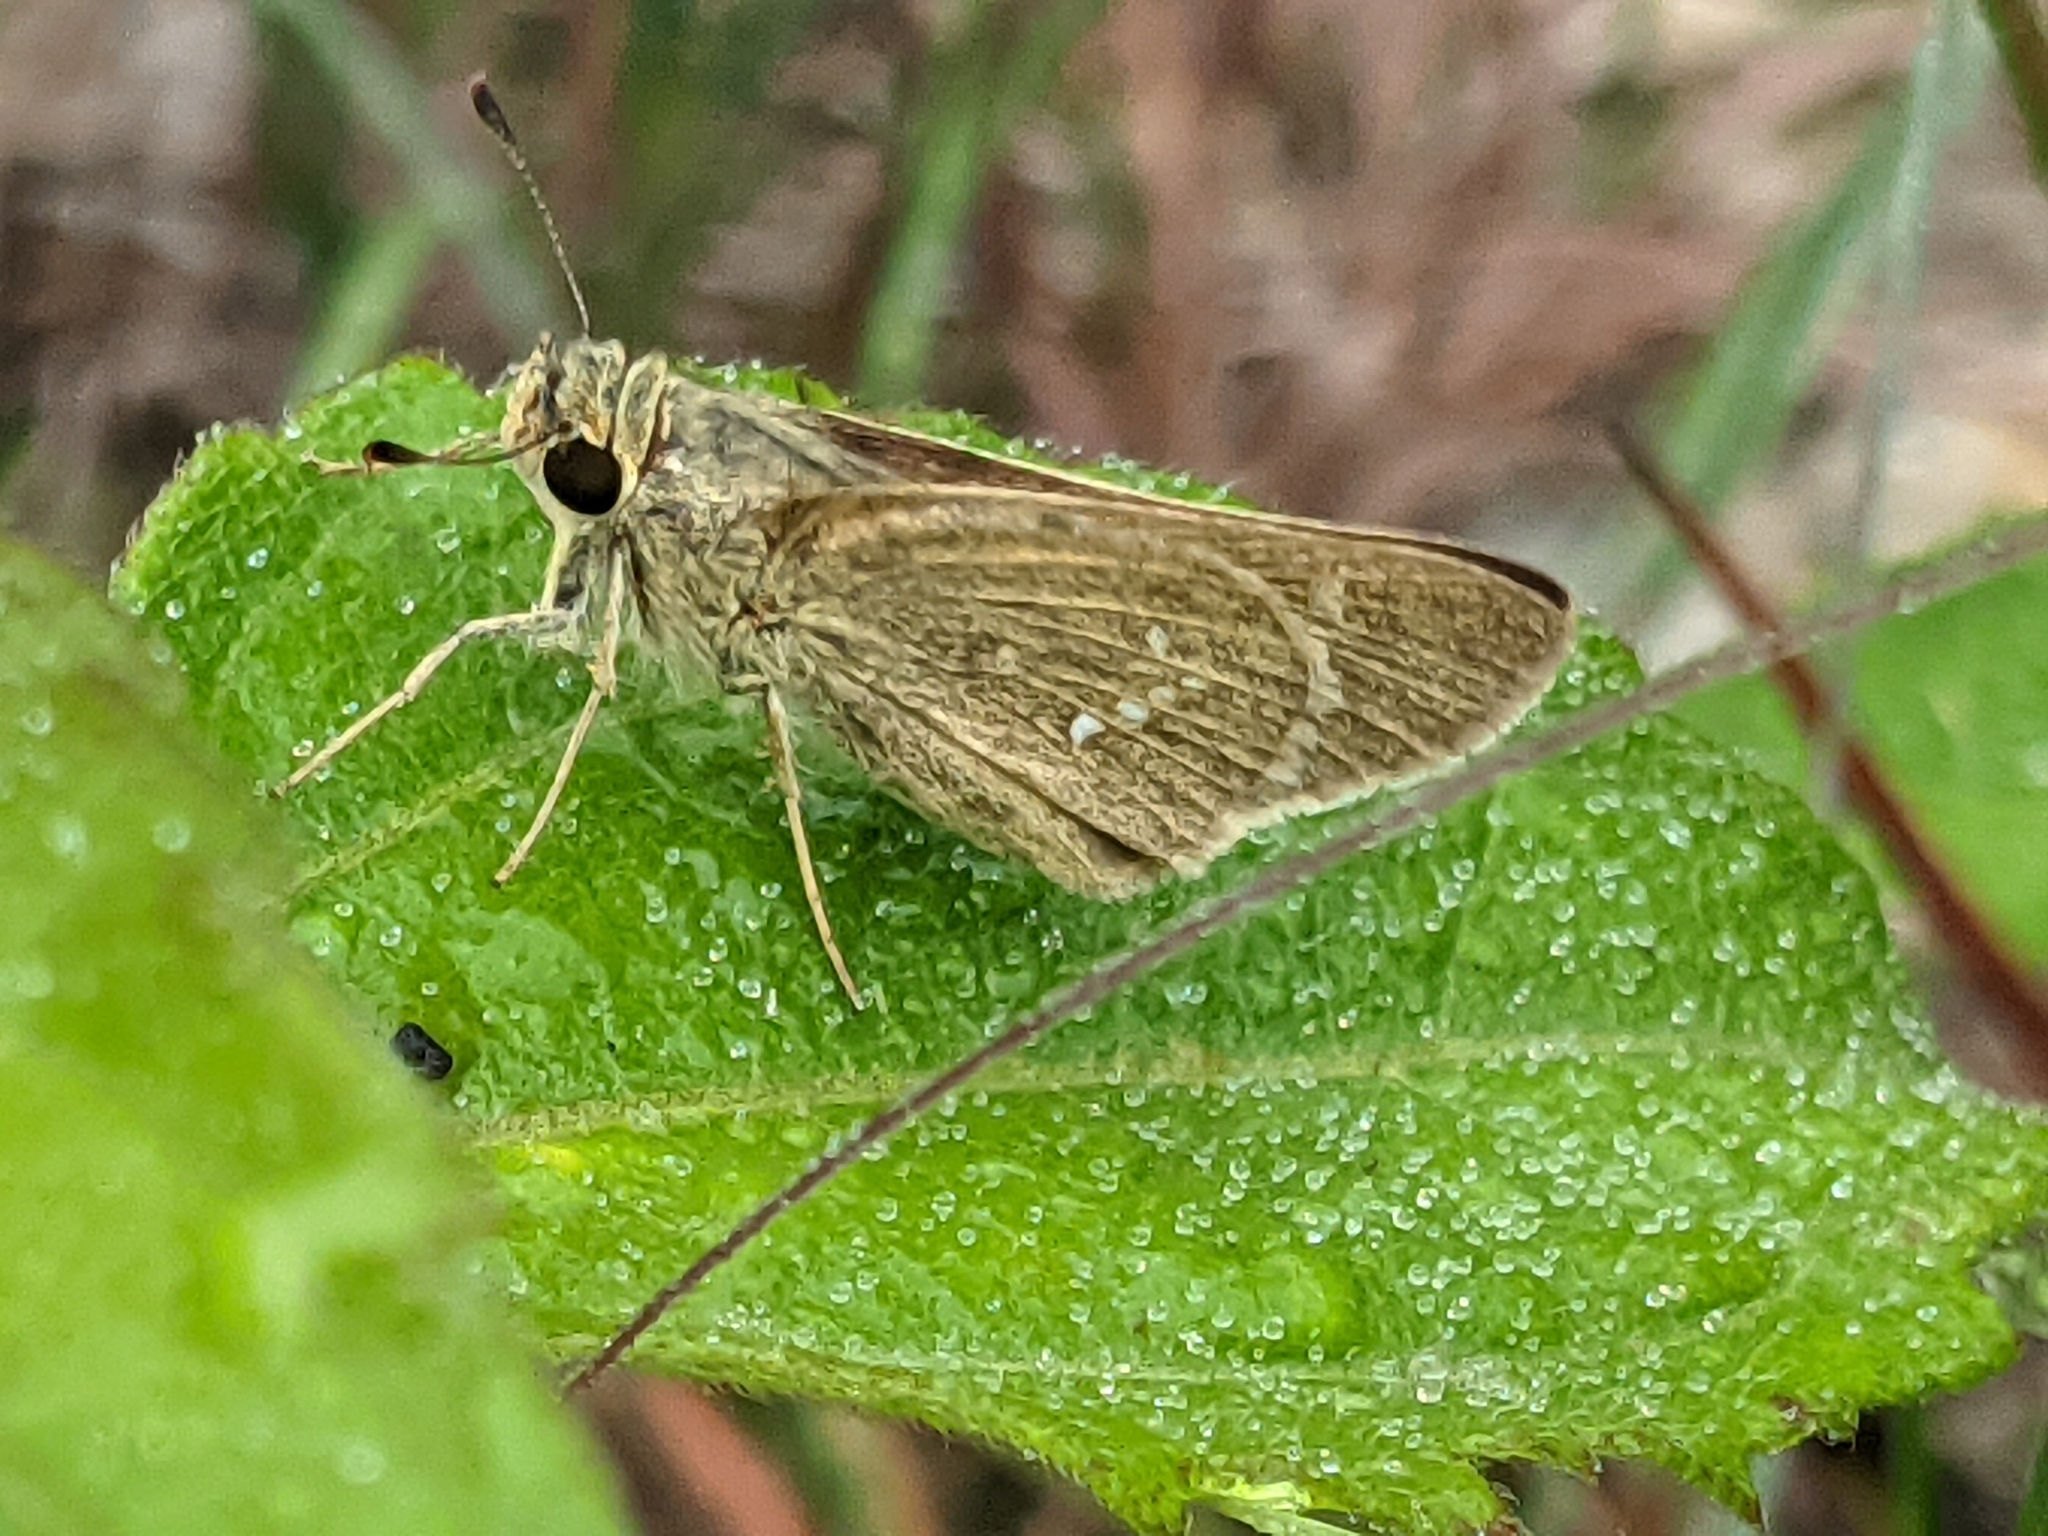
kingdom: Animalia
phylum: Arthropoda
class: Insecta
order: Lepidoptera
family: Hesperiidae
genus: Parnara
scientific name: Parnara naso
